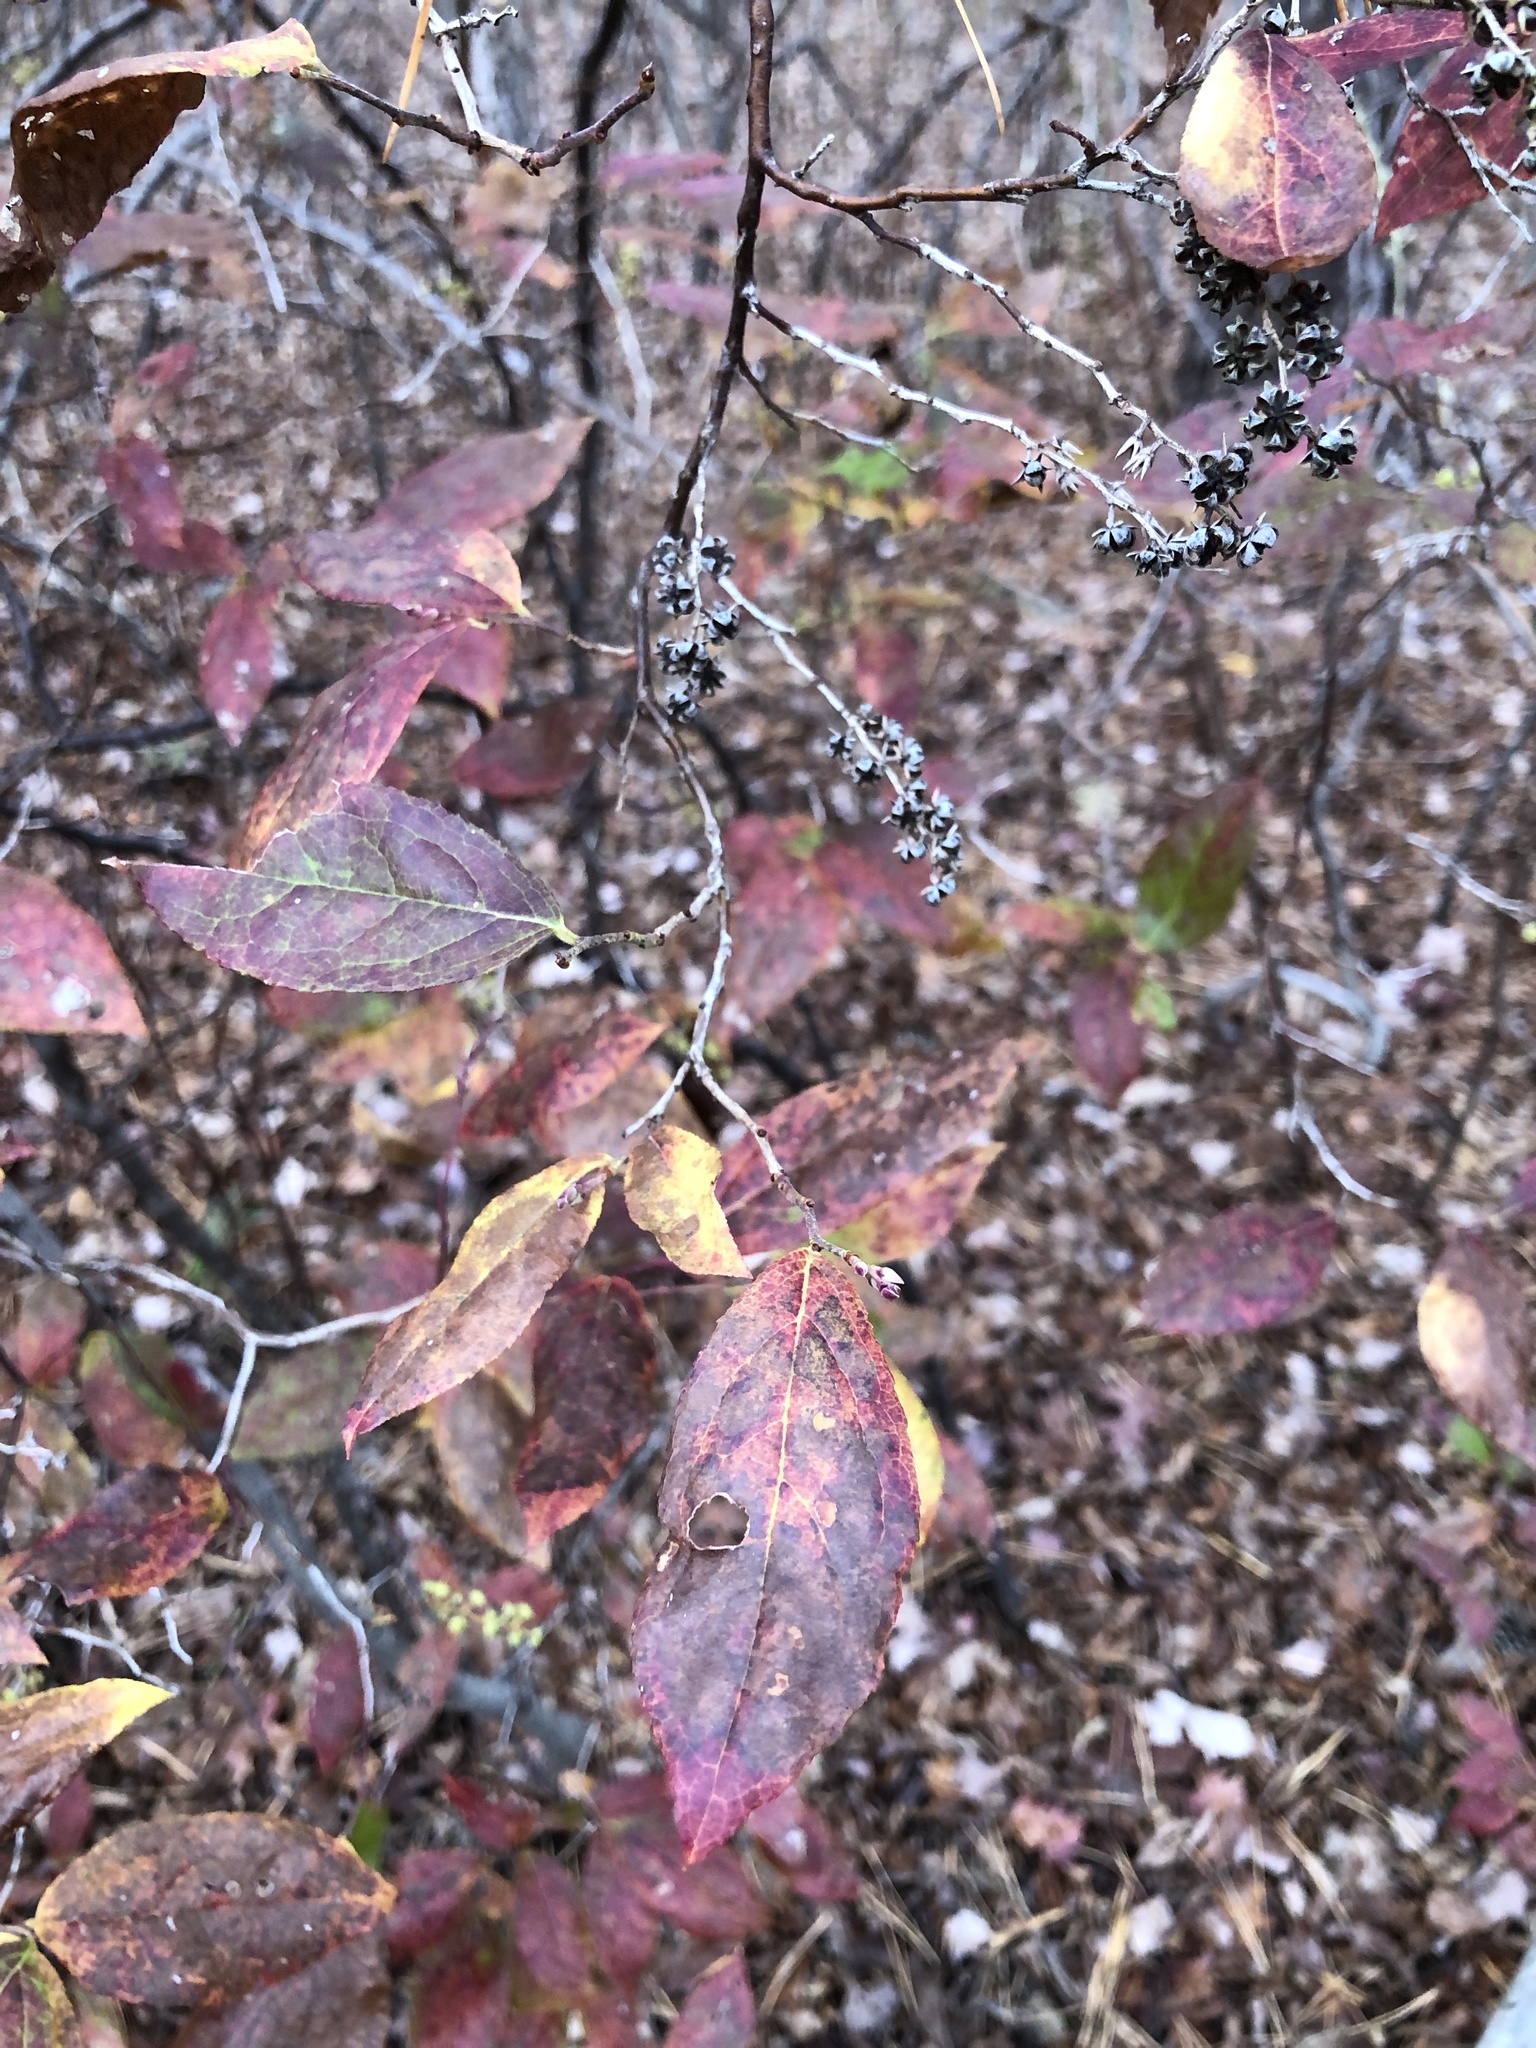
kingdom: Plantae
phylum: Tracheophyta
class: Magnoliopsida
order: Ericales
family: Ericaceae
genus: Eubotrys
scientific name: Eubotrys racemosa
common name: Fetterbush
